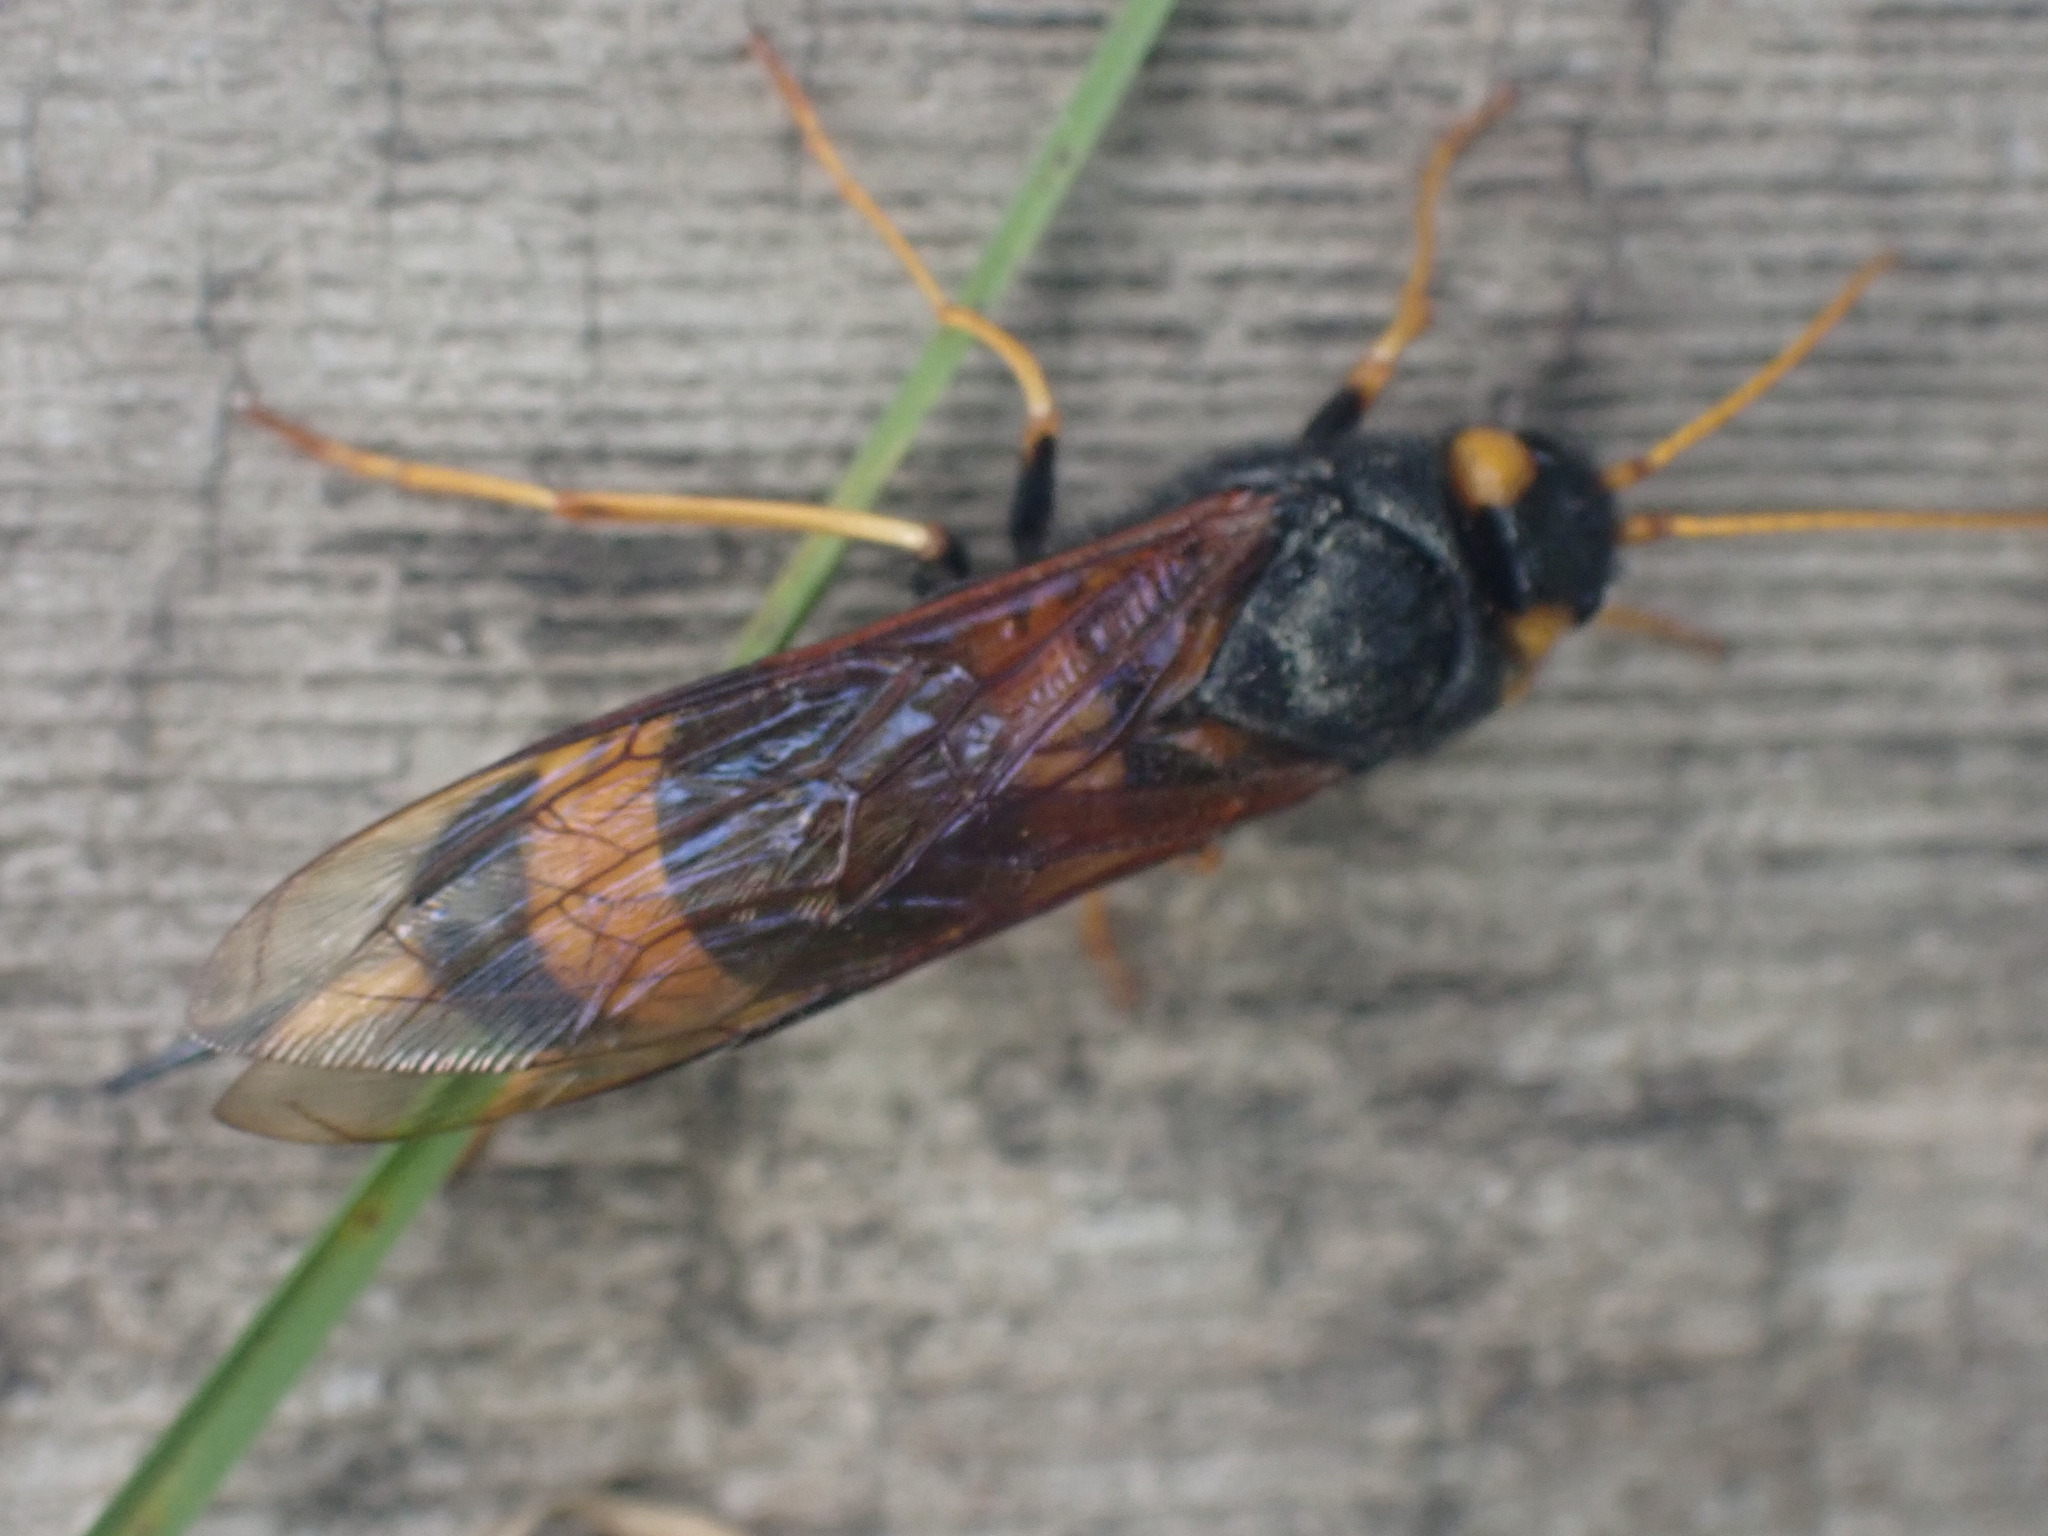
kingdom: Animalia
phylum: Arthropoda
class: Insecta
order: Hymenoptera
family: Siricidae
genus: Urocerus
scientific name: Urocerus flavicornis
